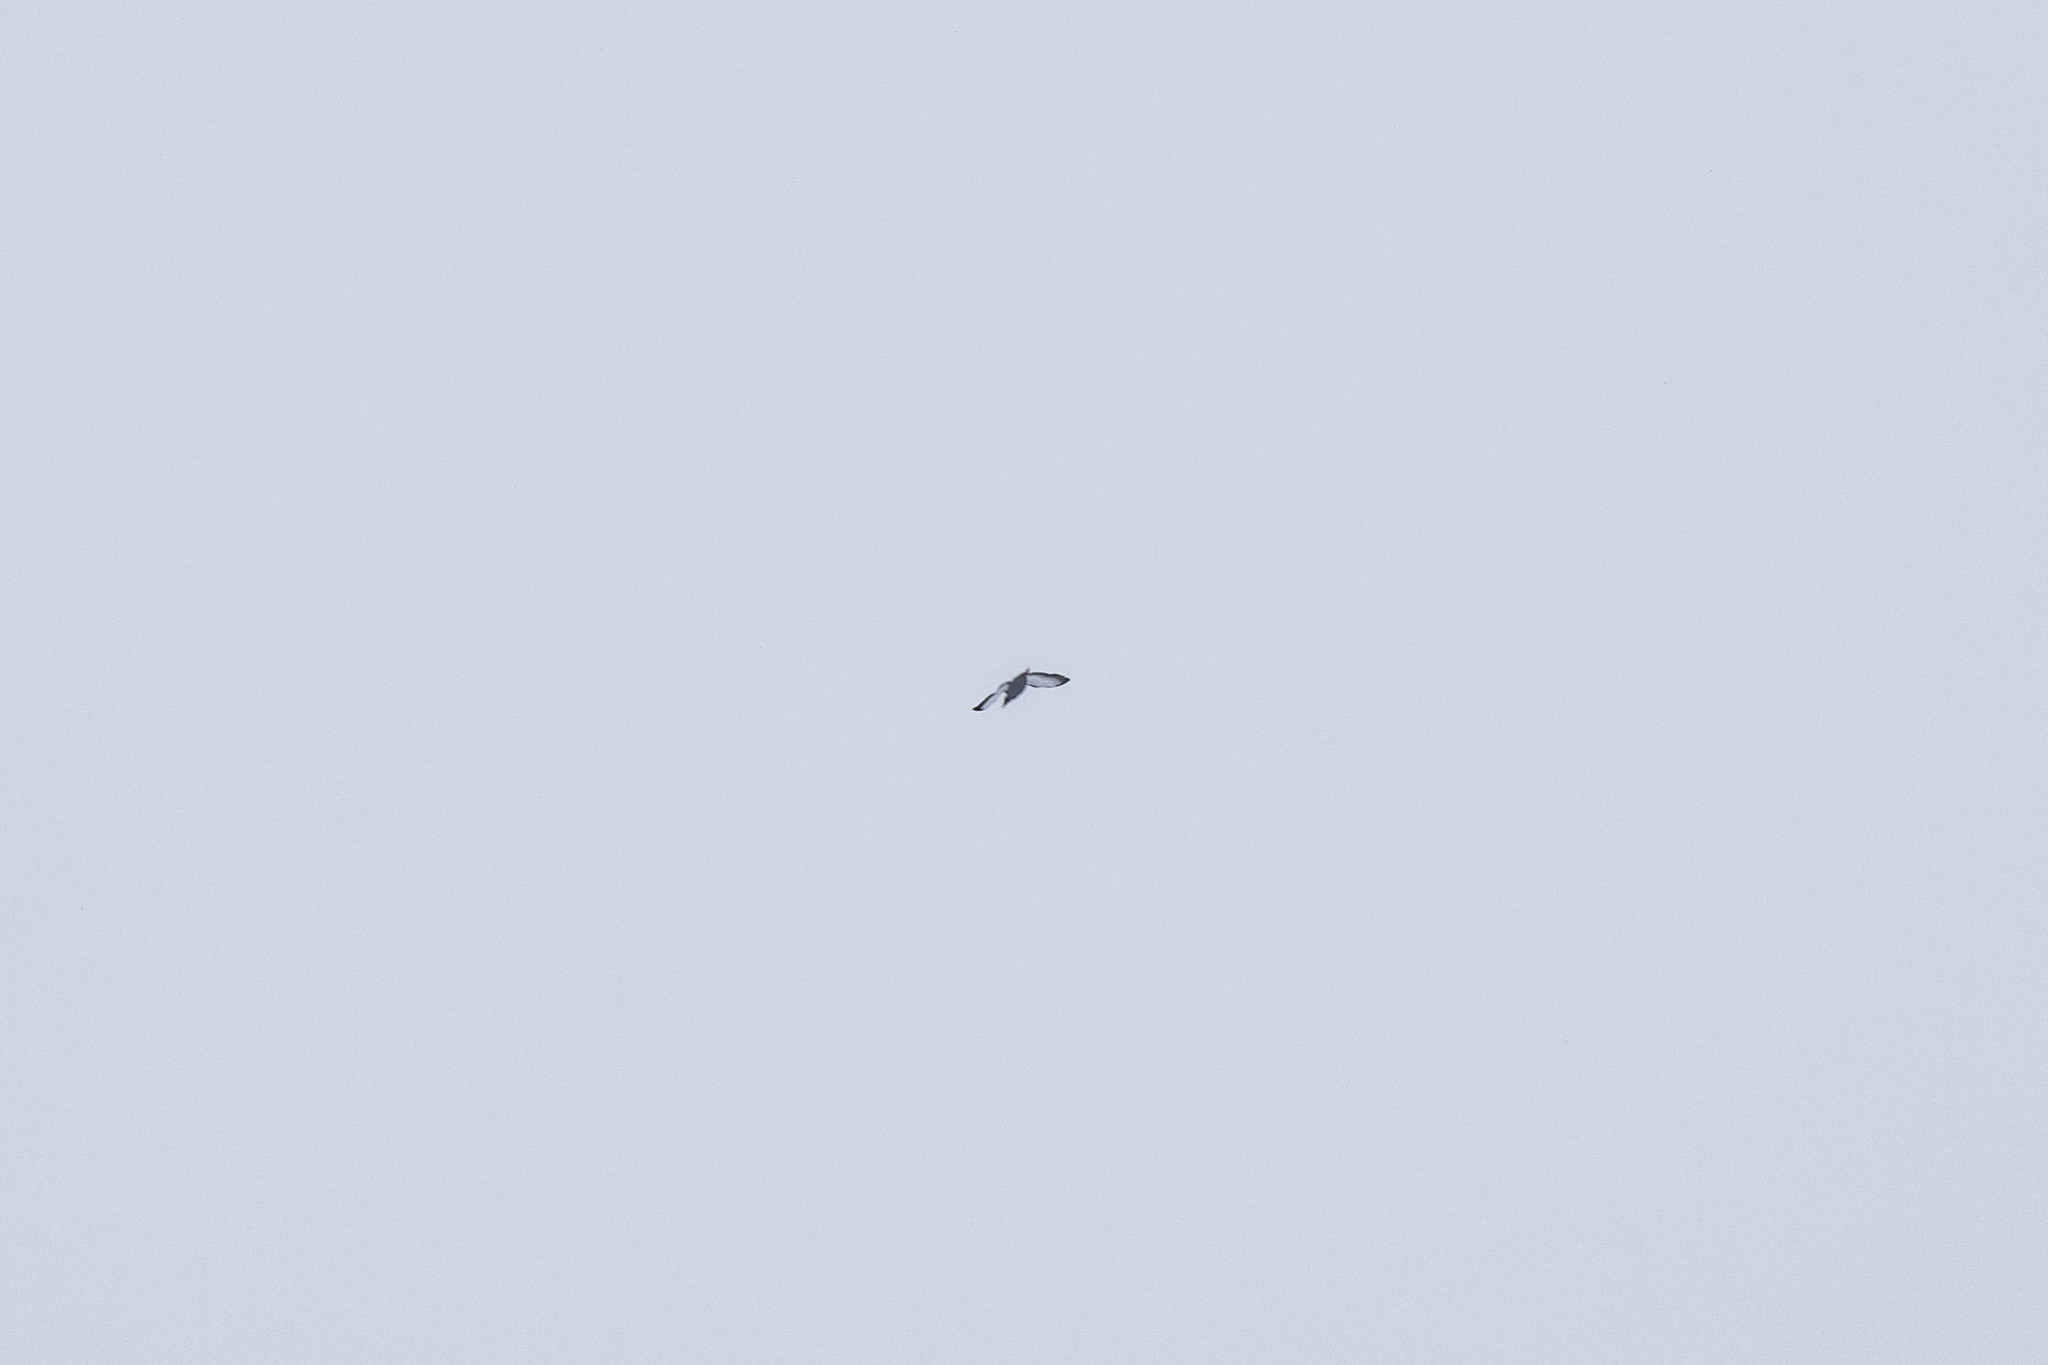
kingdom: Animalia
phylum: Chordata
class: Aves
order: Charadriiformes
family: Alcidae
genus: Cepphus
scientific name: Cepphus grylle
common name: Black guillemot
